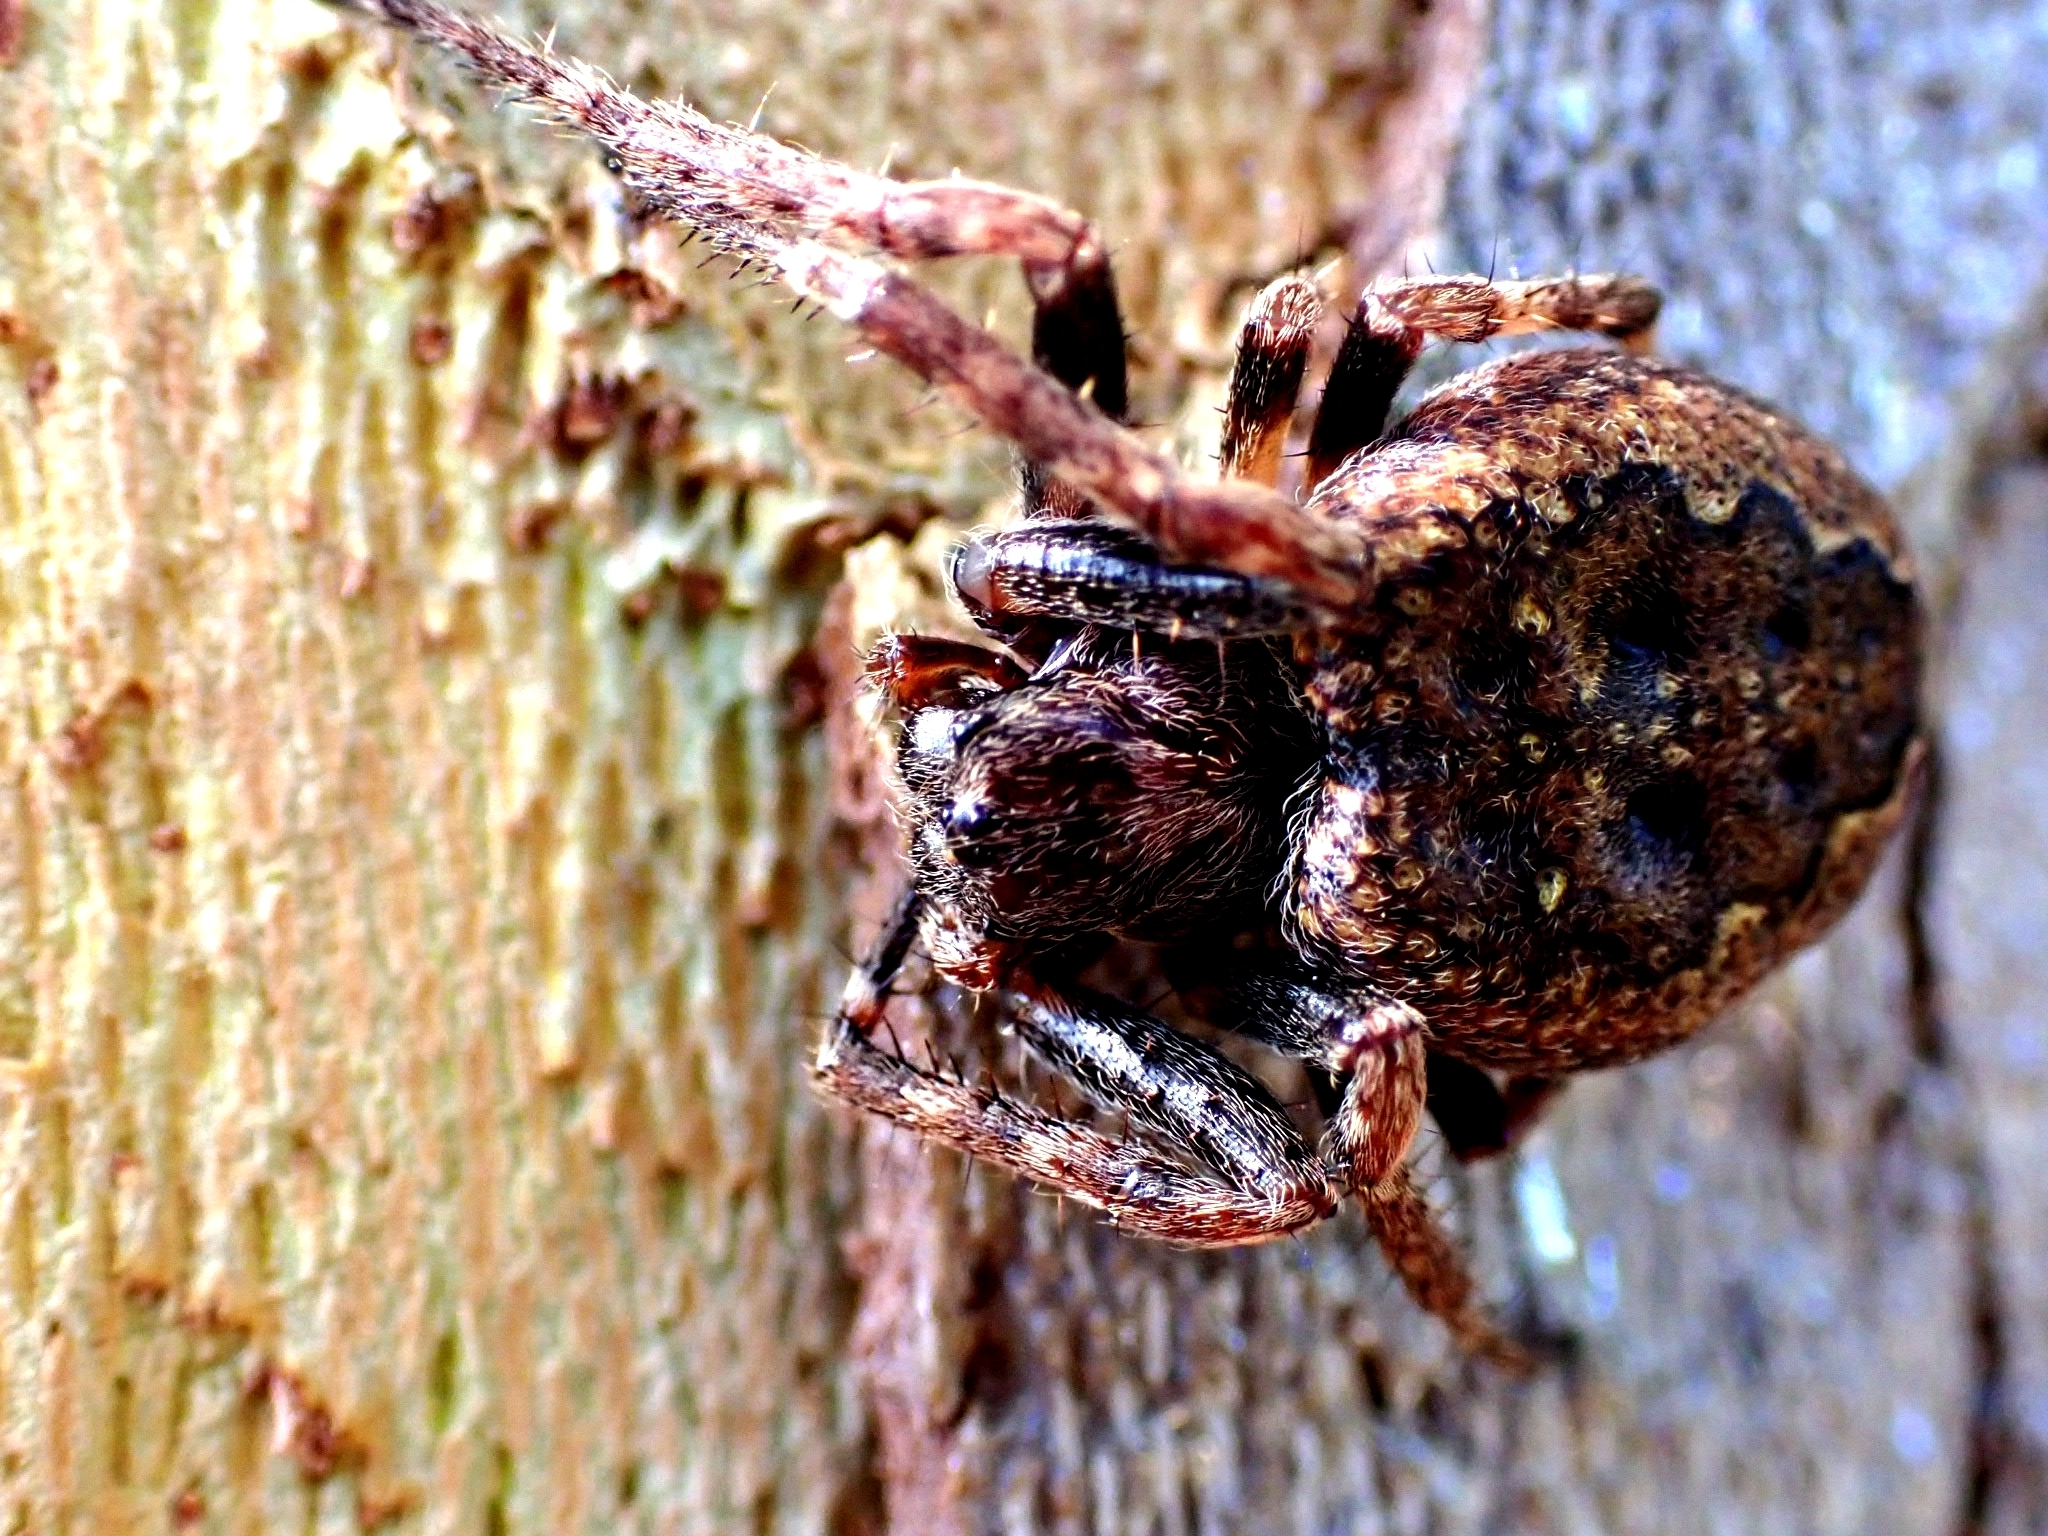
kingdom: Animalia
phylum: Arthropoda
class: Arachnida
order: Araneae
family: Araneidae
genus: Nuctenea
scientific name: Nuctenea umbratica
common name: Toad spider
